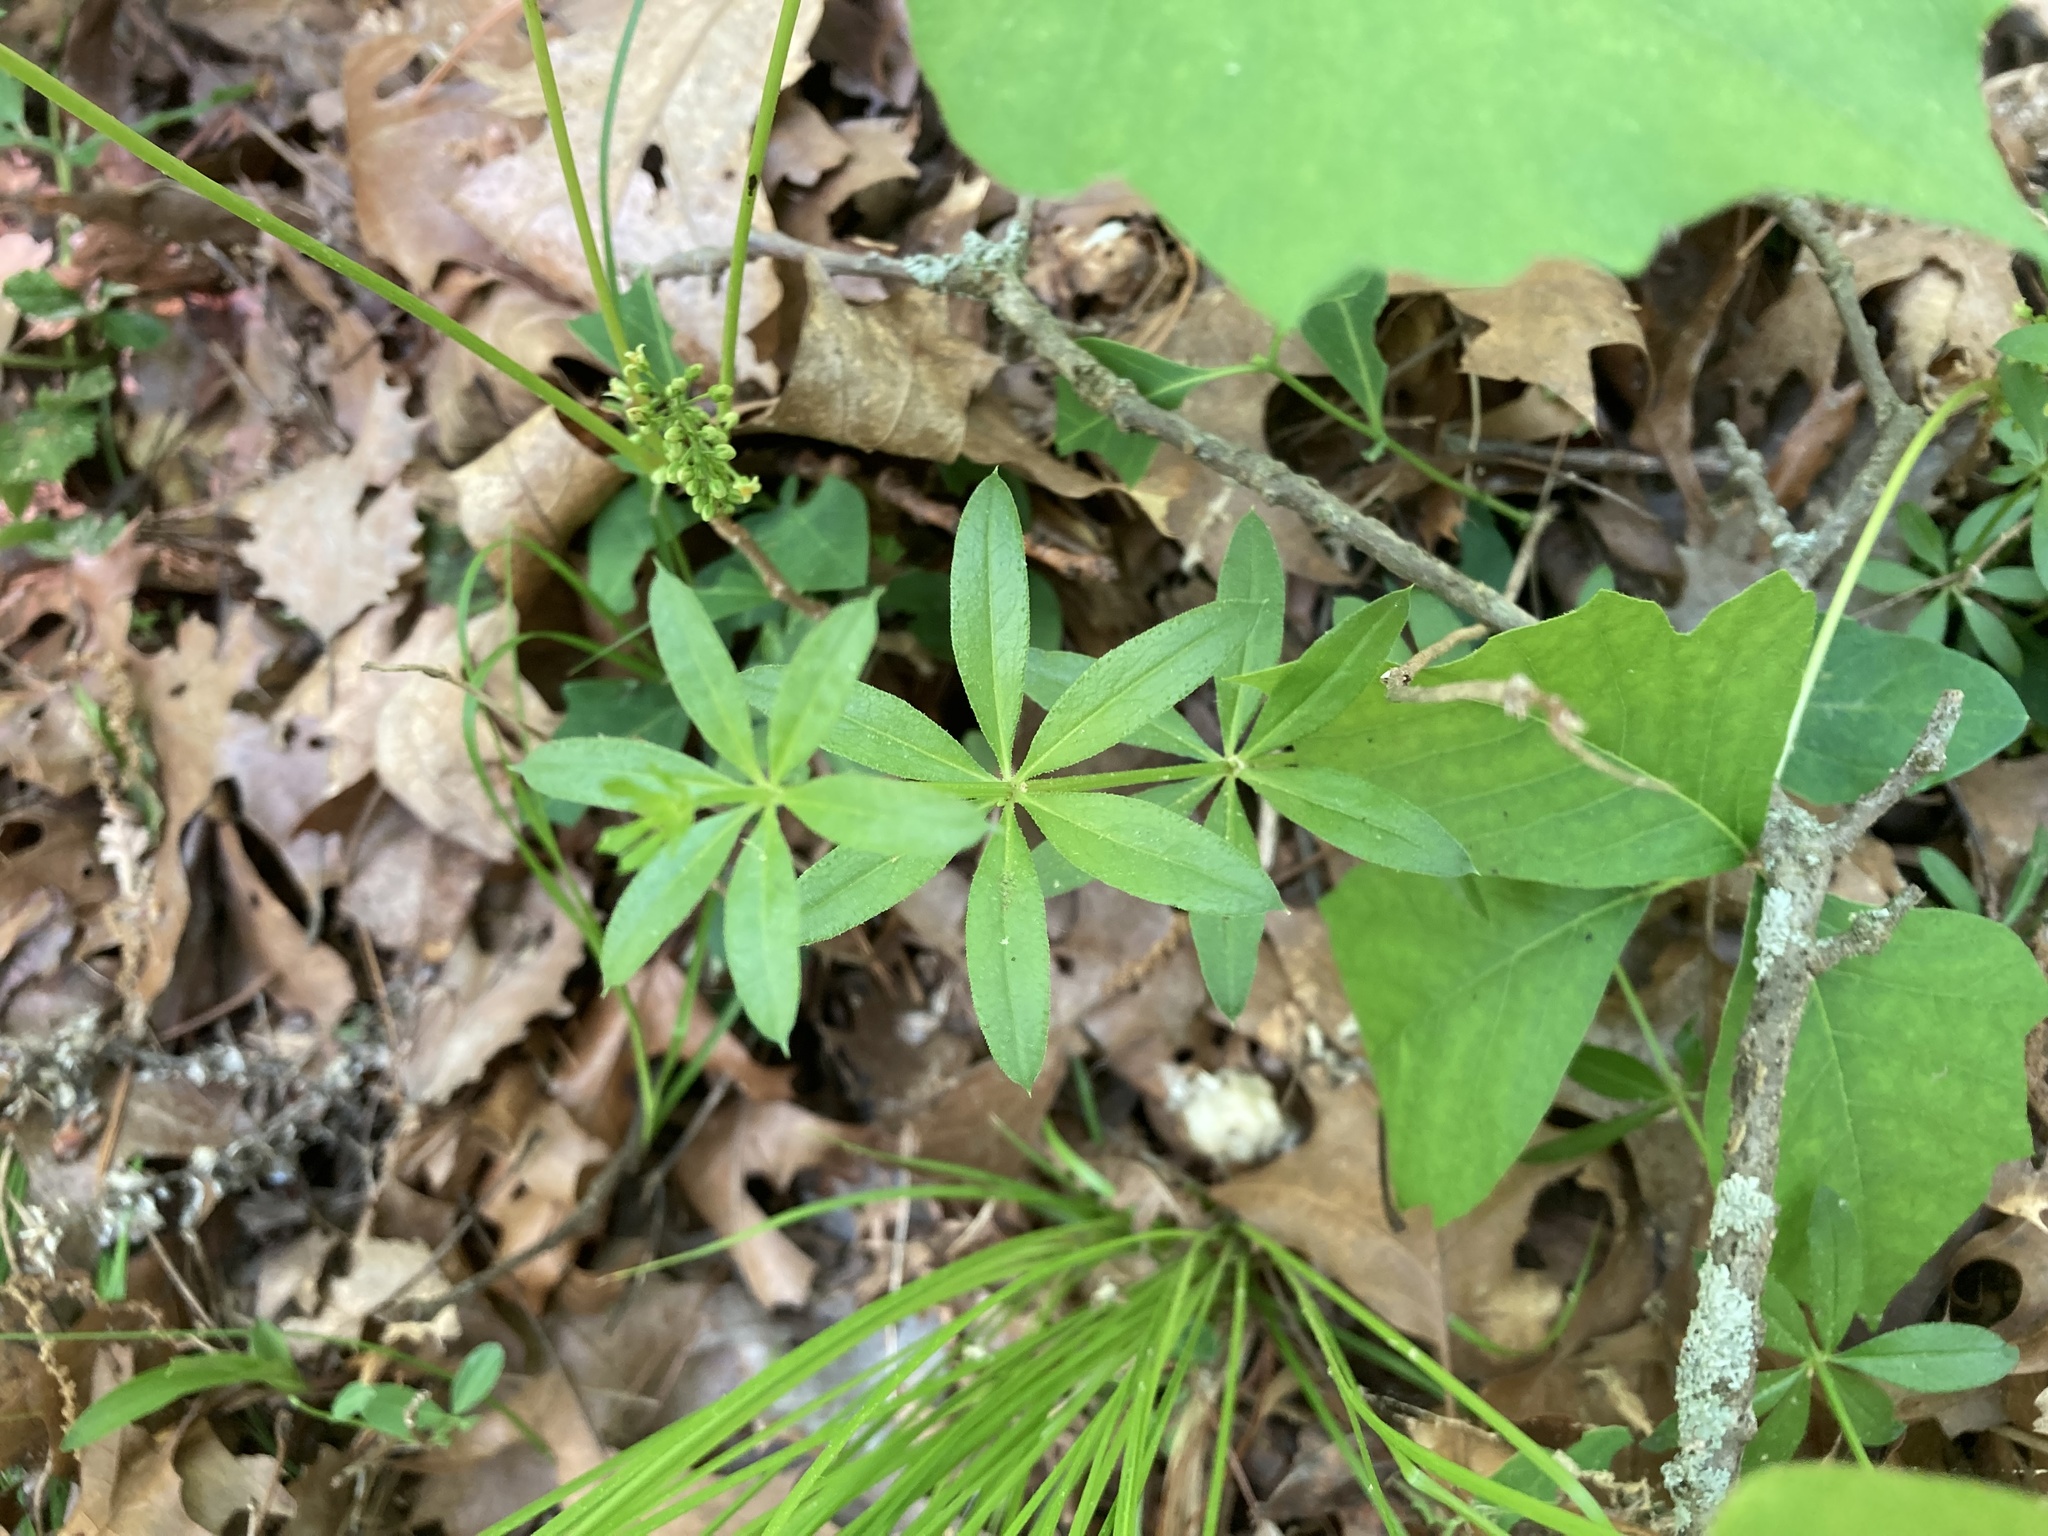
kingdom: Plantae
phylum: Tracheophyta
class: Magnoliopsida
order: Gentianales
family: Rubiaceae
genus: Galium
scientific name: Galium triflorum
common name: Fragrant bedstraw
